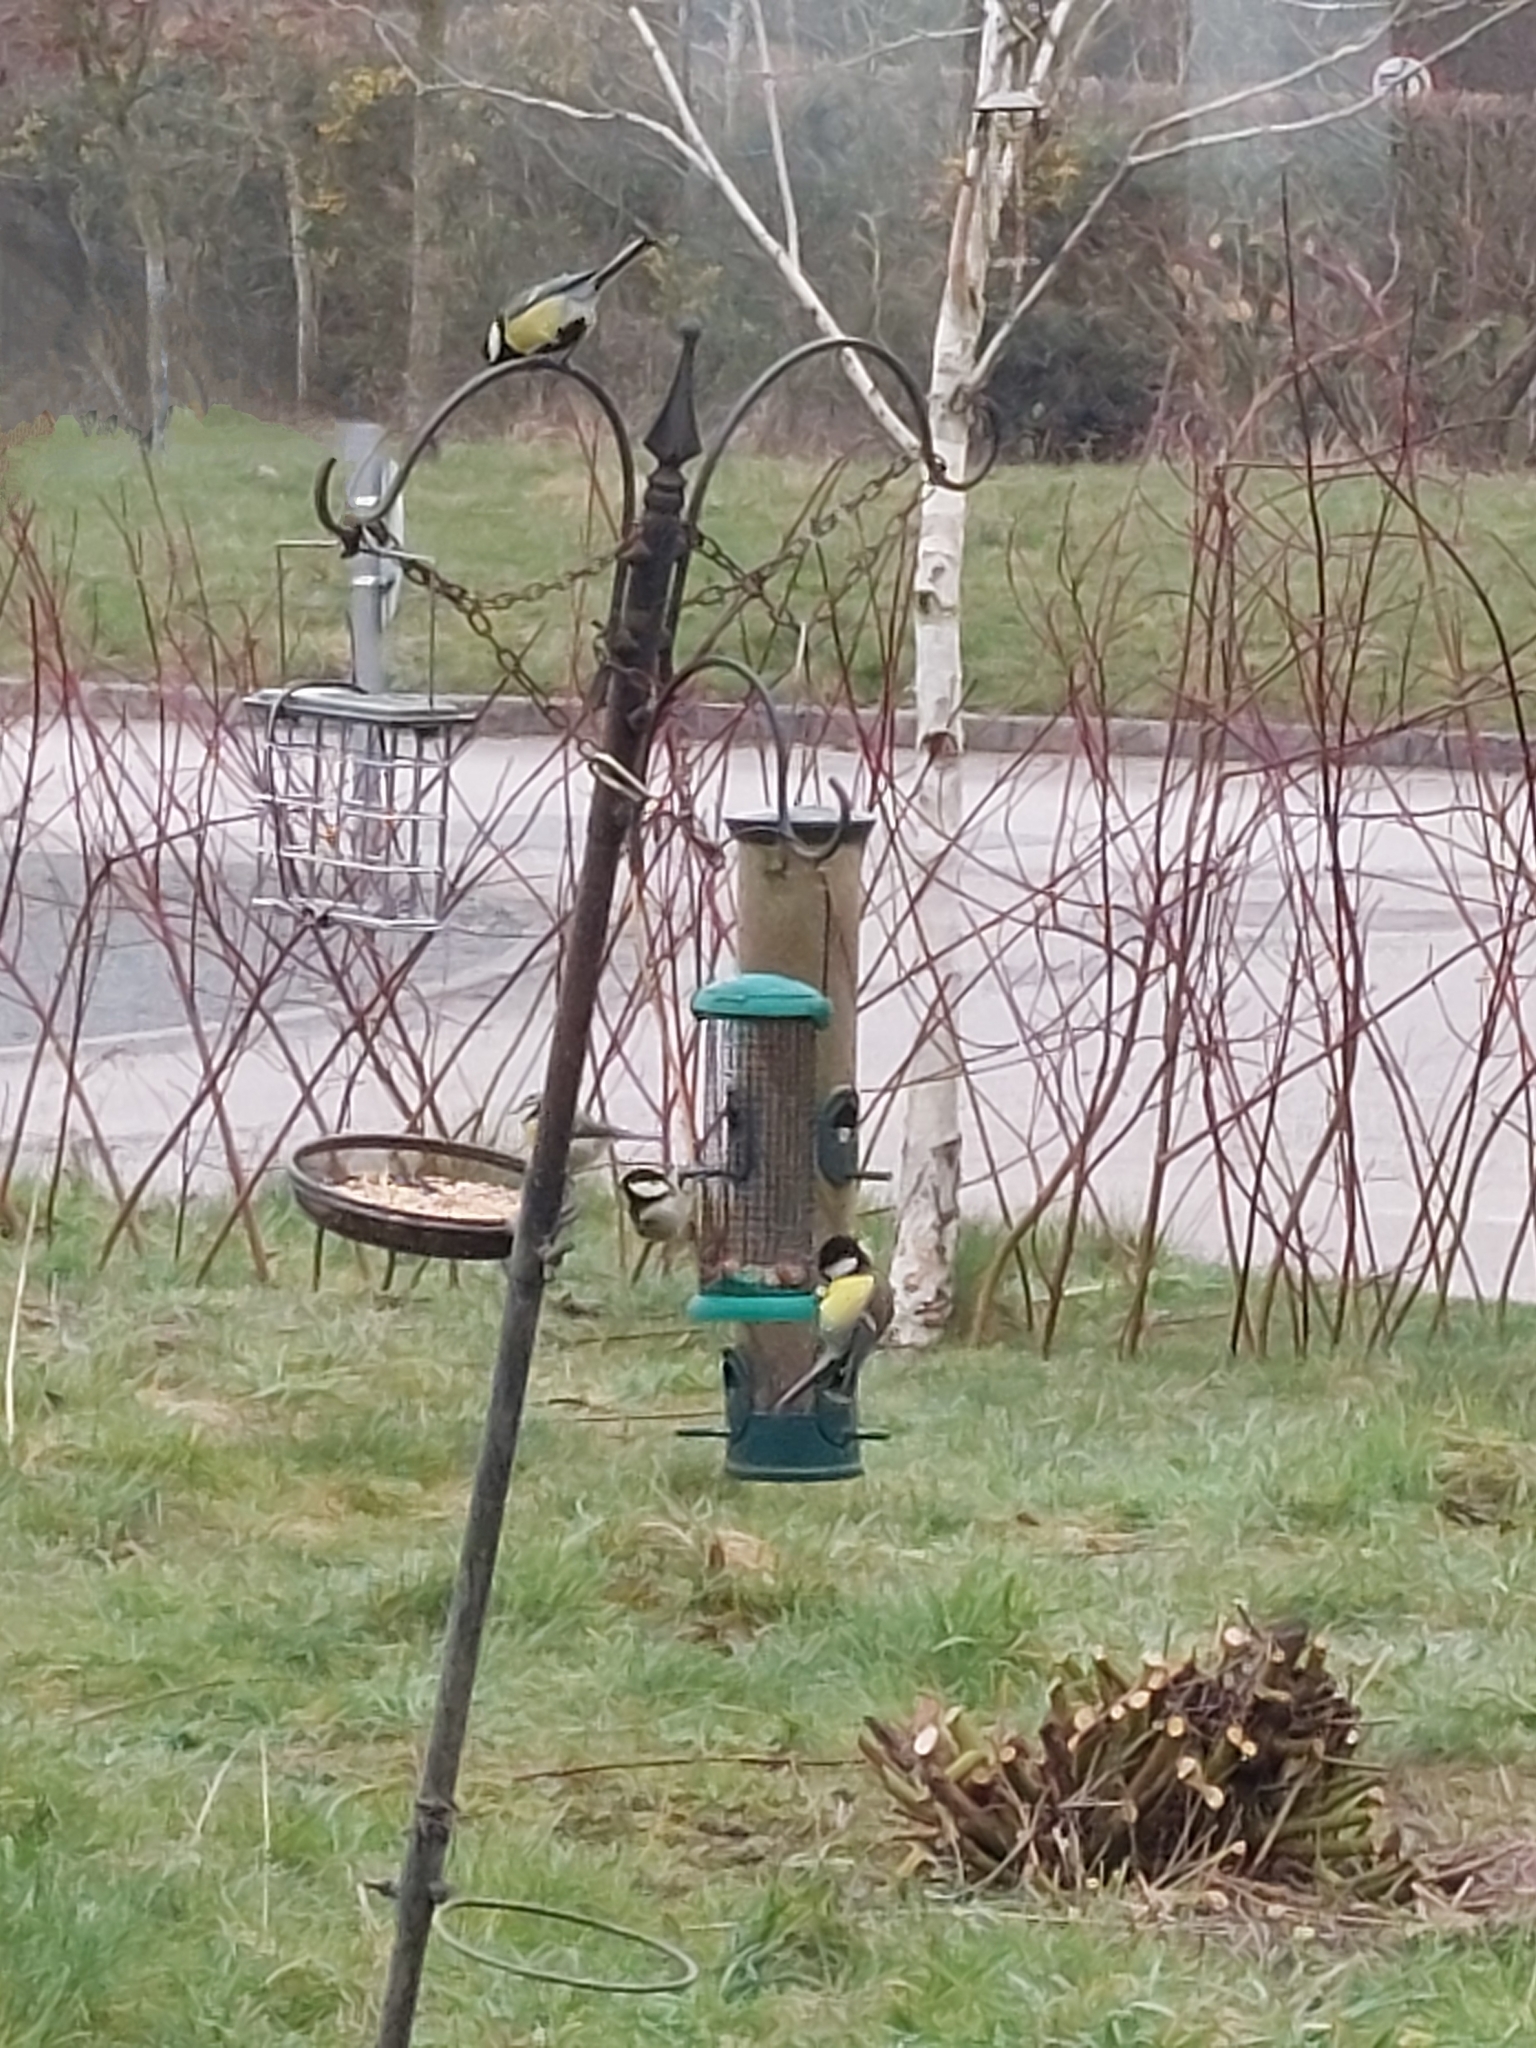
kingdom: Animalia
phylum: Chordata
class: Aves
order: Passeriformes
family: Paridae
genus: Parus
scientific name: Parus major
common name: Great tit
